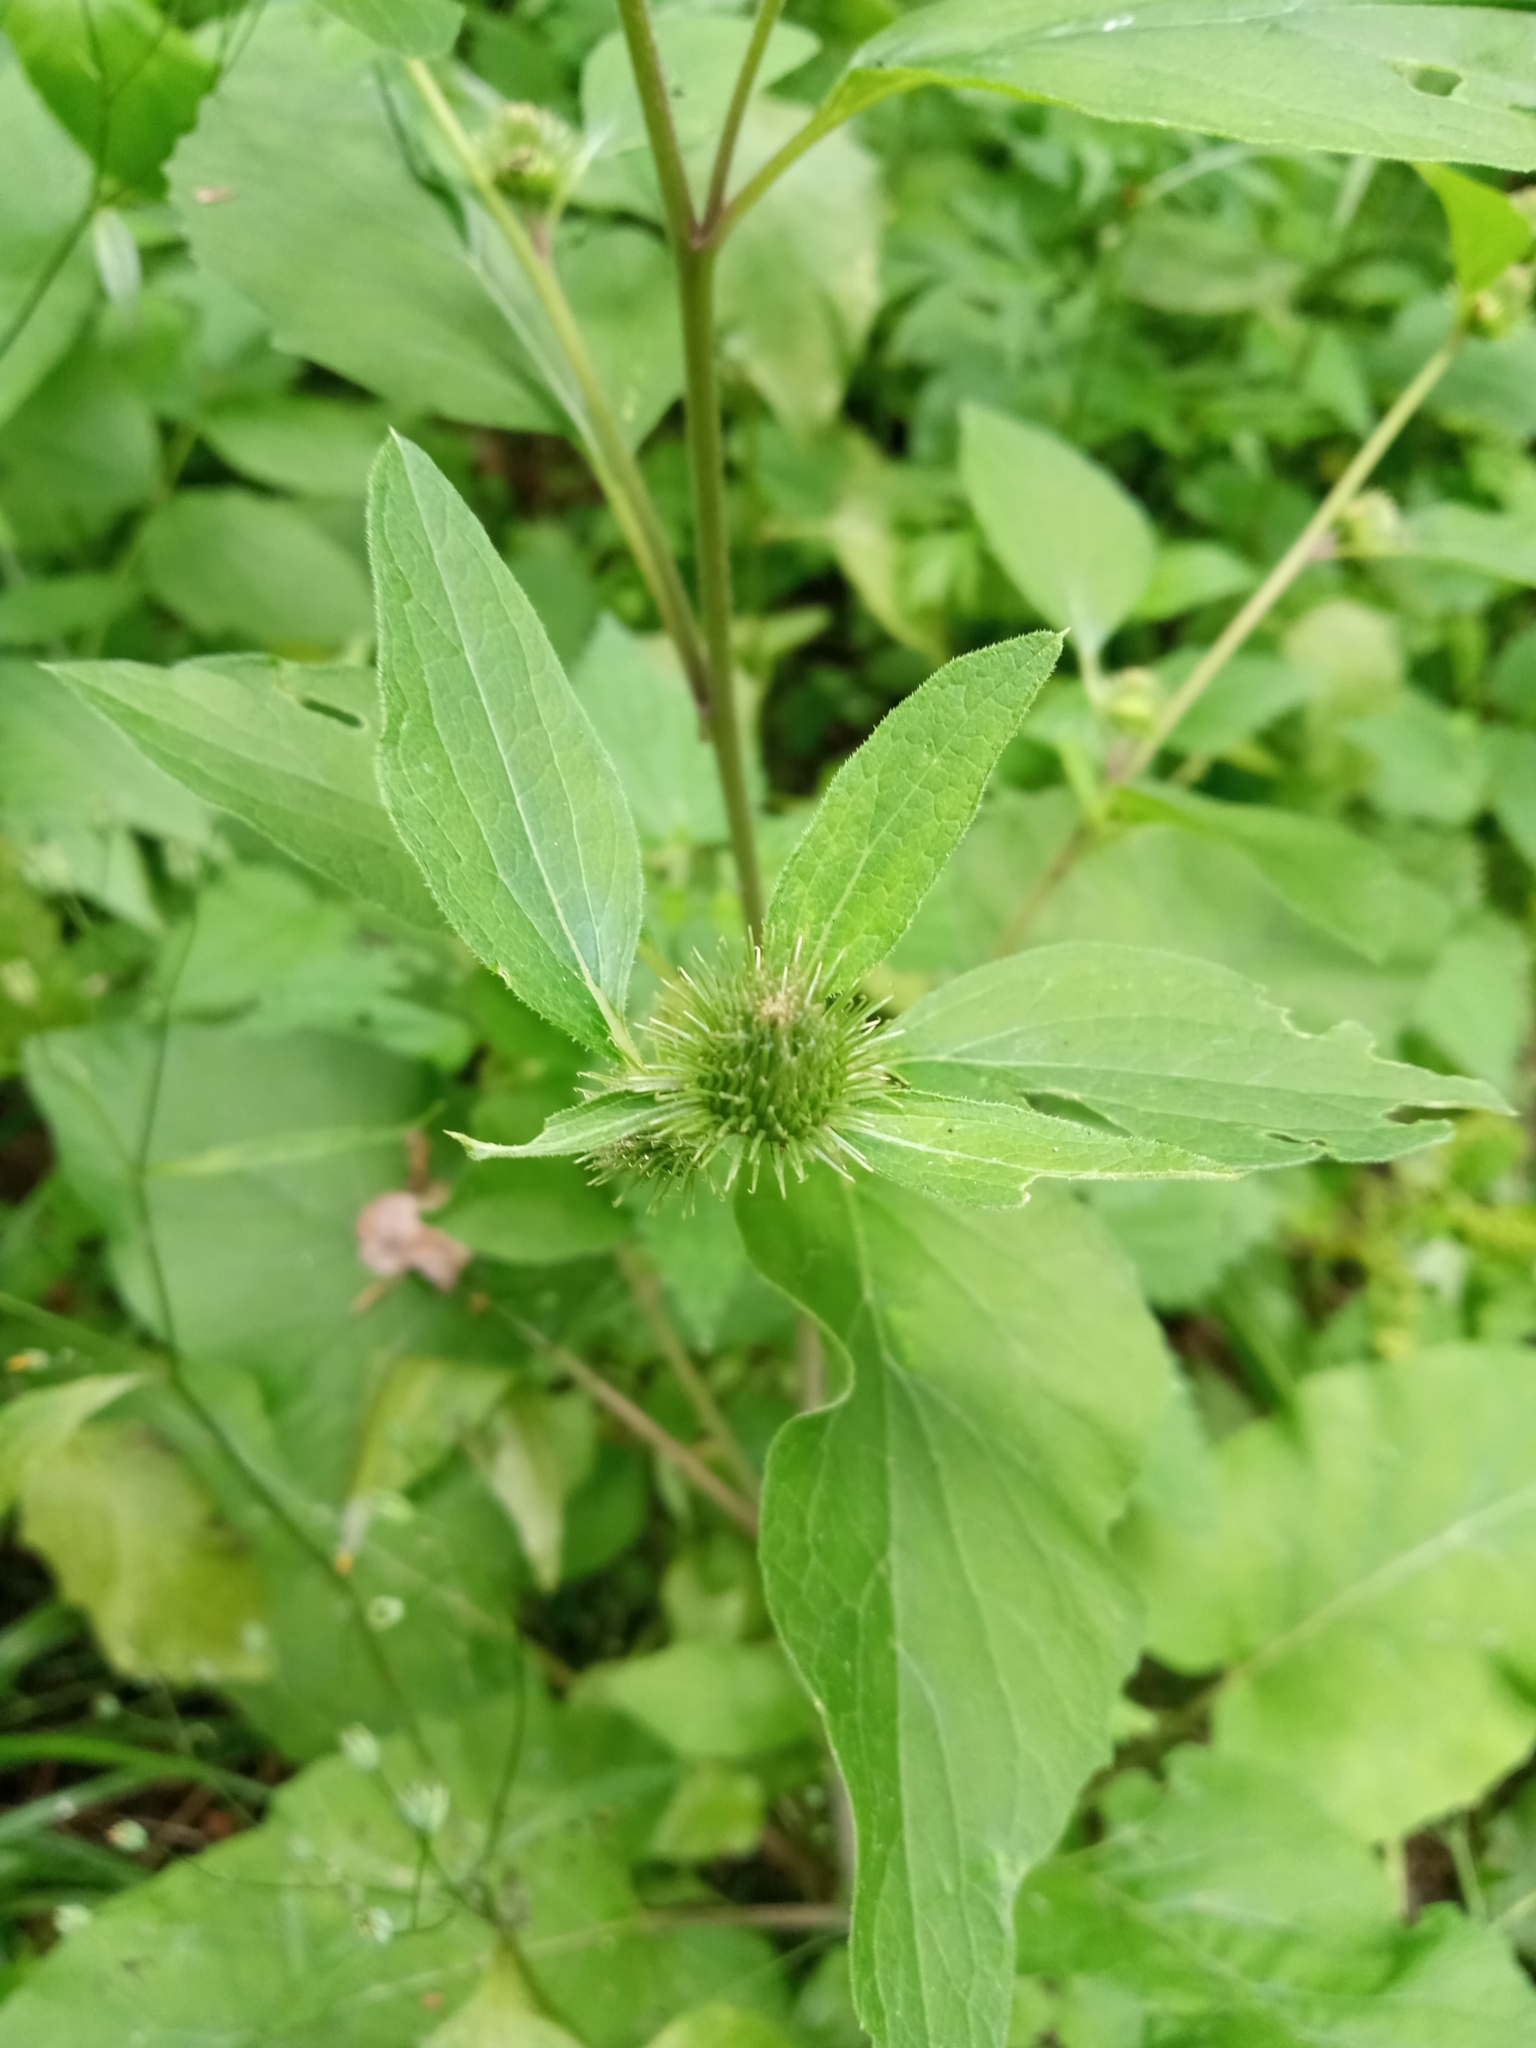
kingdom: Plantae
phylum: Tracheophyta
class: Magnoliopsida
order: Asterales
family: Asteraceae
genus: Arctium
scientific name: Arctium minus
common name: Lesser burdock
